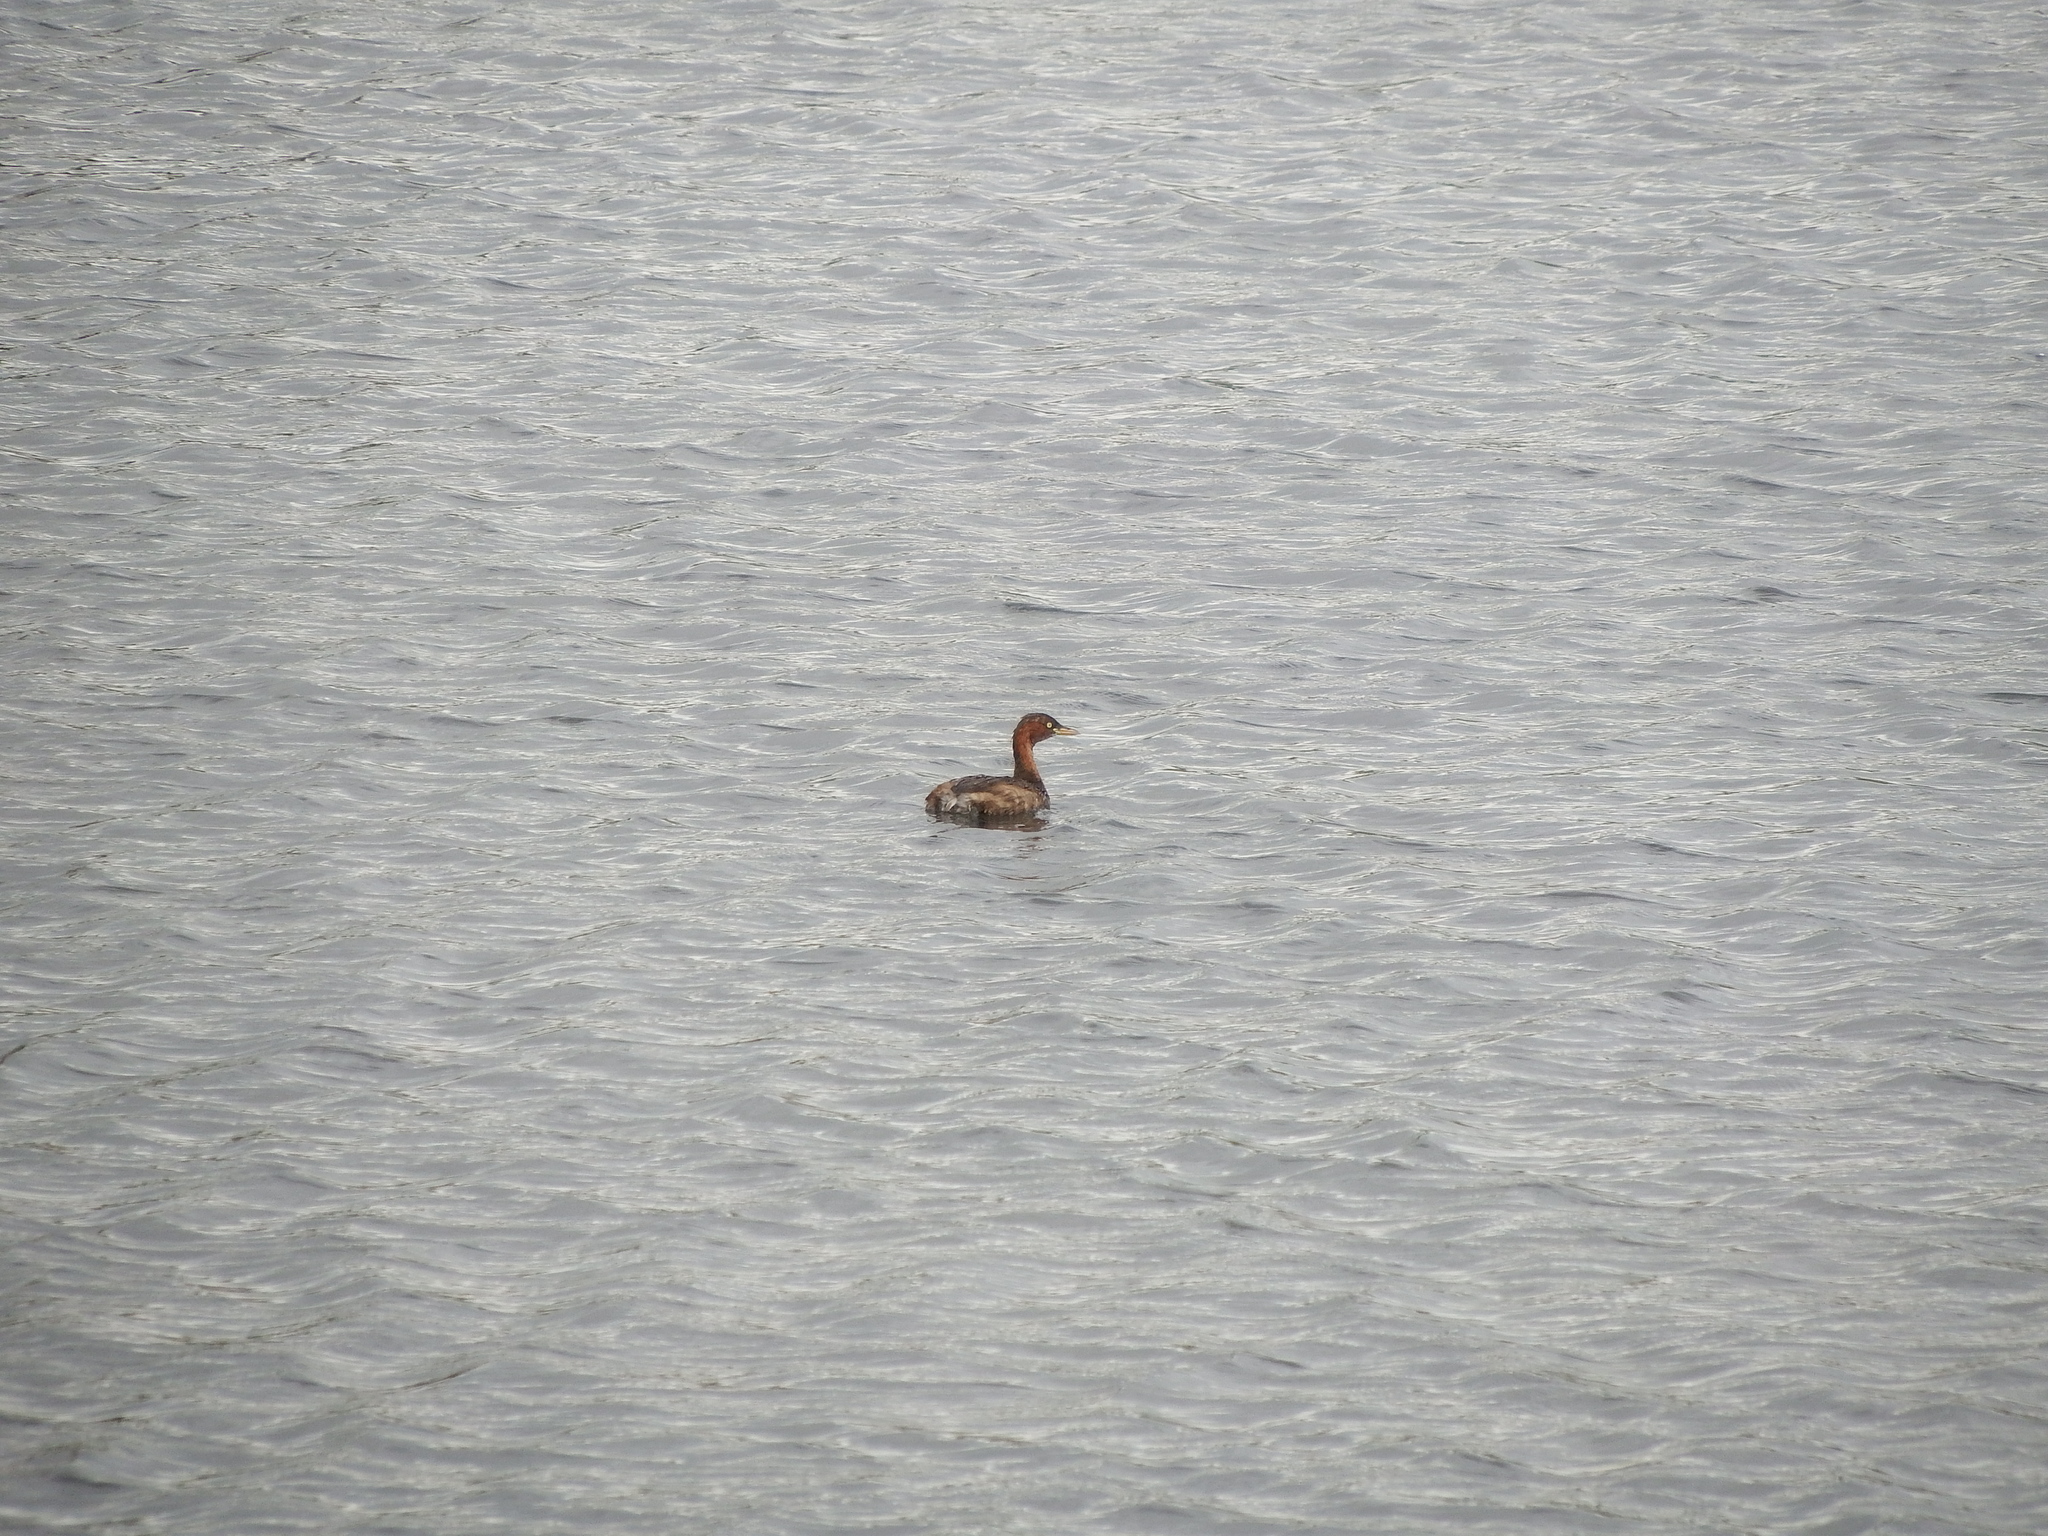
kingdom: Animalia
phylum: Chordata
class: Aves
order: Podicipediformes
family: Podicipedidae
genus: Tachybaptus
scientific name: Tachybaptus ruficollis
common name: Little grebe
